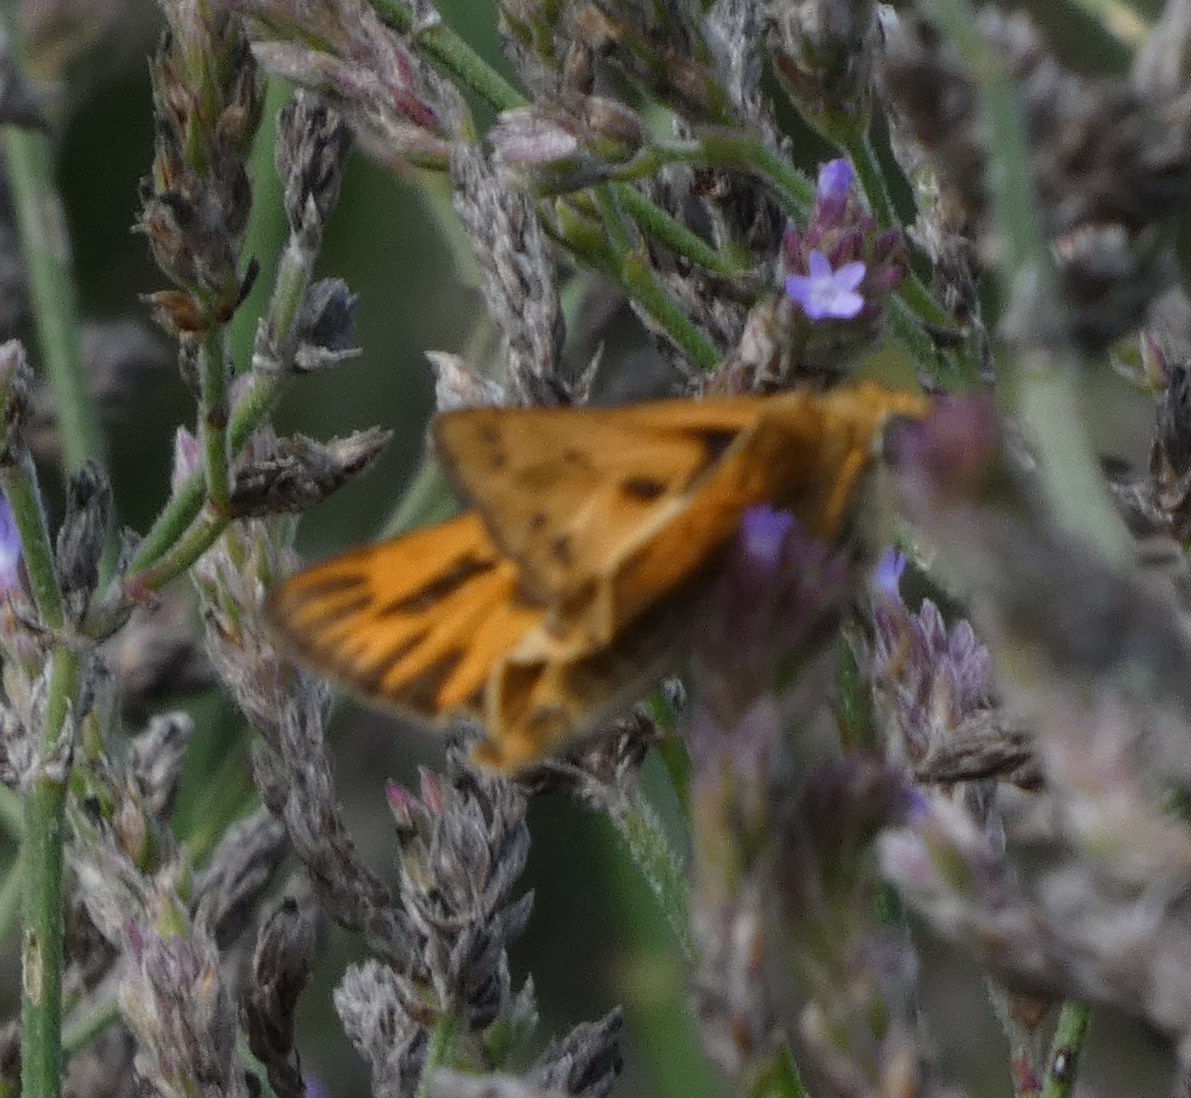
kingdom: Animalia
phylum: Arthropoda
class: Insecta
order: Lepidoptera
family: Hesperiidae
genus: Hylephila
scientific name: Hylephila phyleus
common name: Fiery skipper
